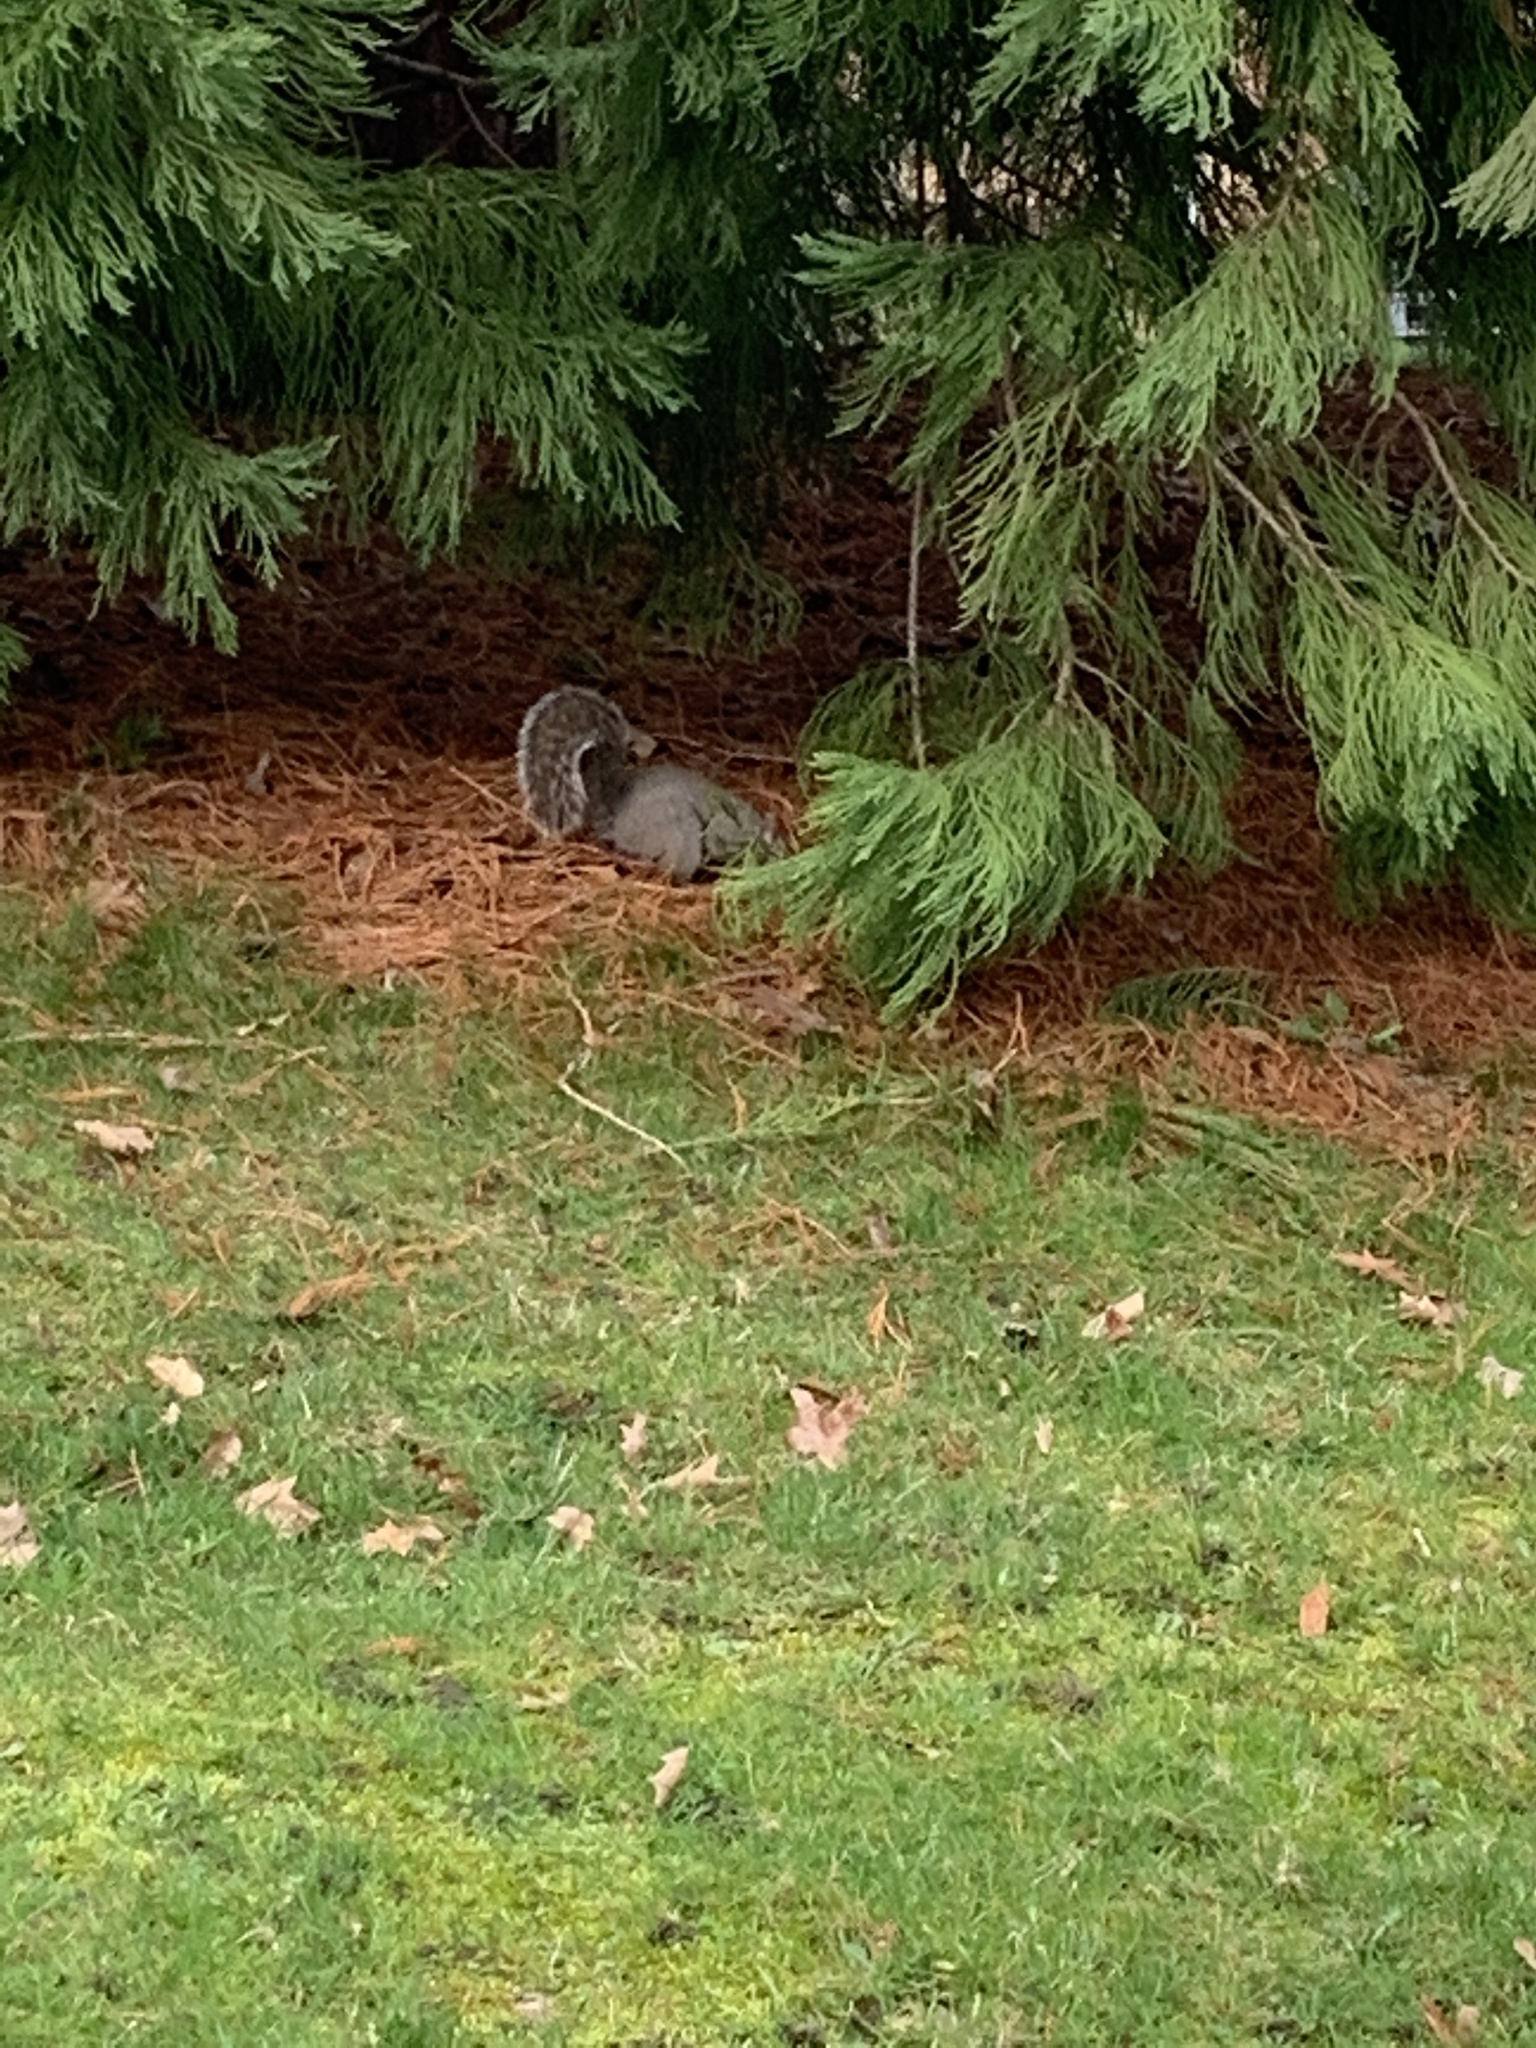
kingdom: Animalia
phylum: Chordata
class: Mammalia
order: Rodentia
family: Sciuridae
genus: Sciurus
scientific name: Sciurus carolinensis
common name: Eastern gray squirrel
